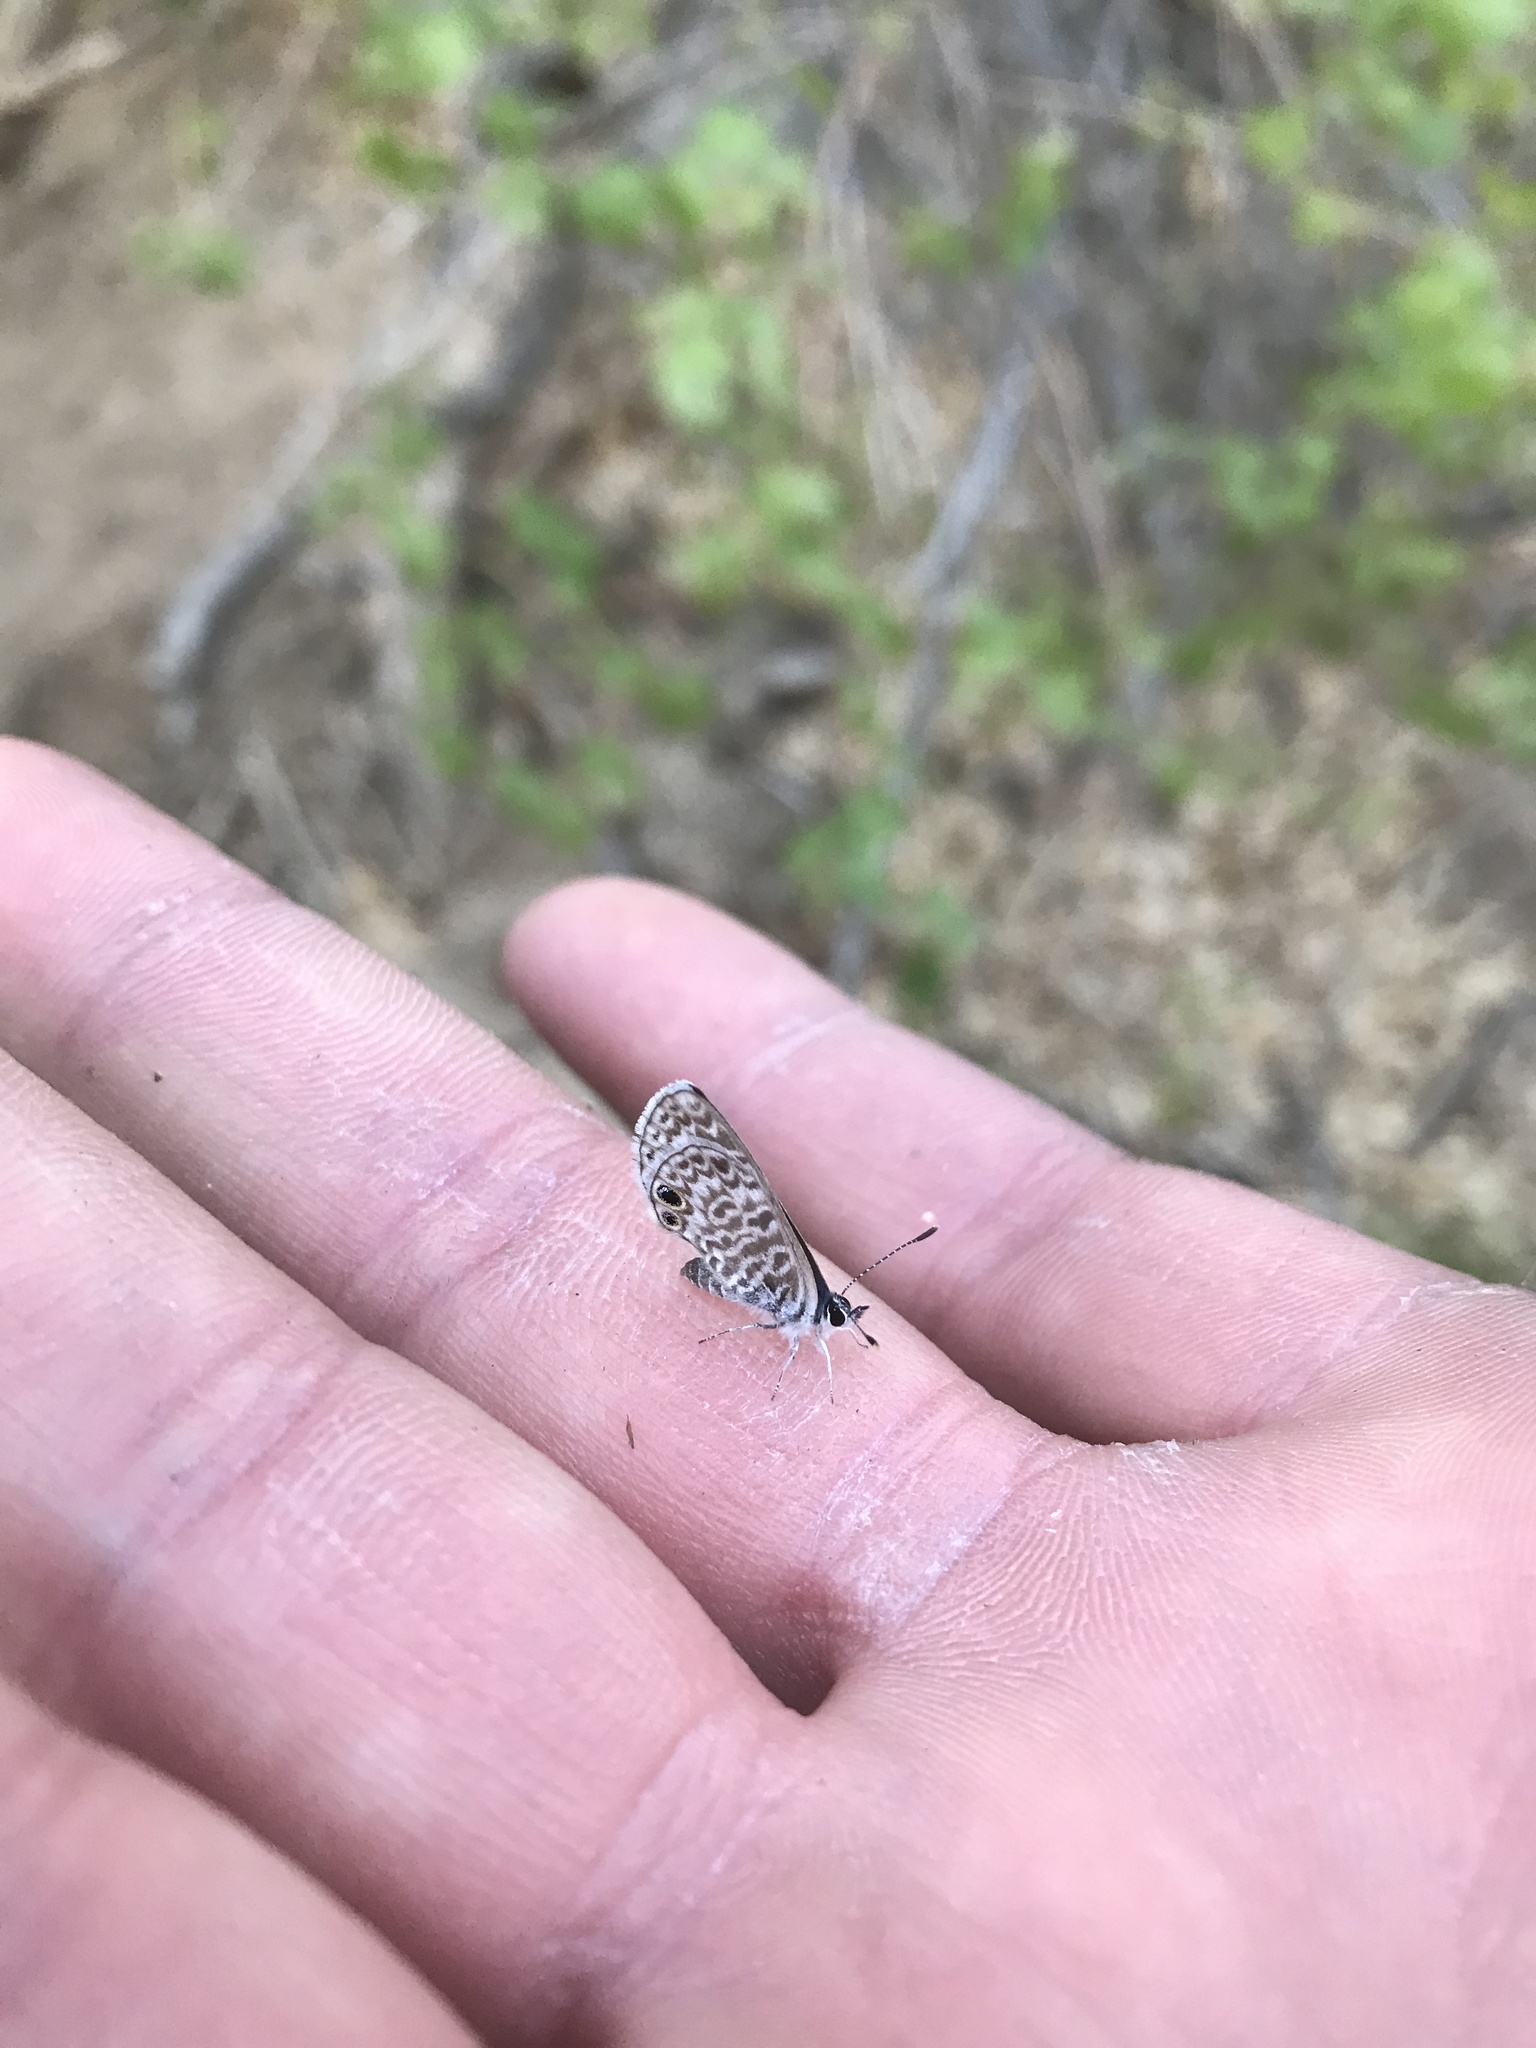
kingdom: Animalia
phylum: Arthropoda
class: Insecta
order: Lepidoptera
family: Lycaenidae
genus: Leptotes
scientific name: Leptotes marina
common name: Marine blue
